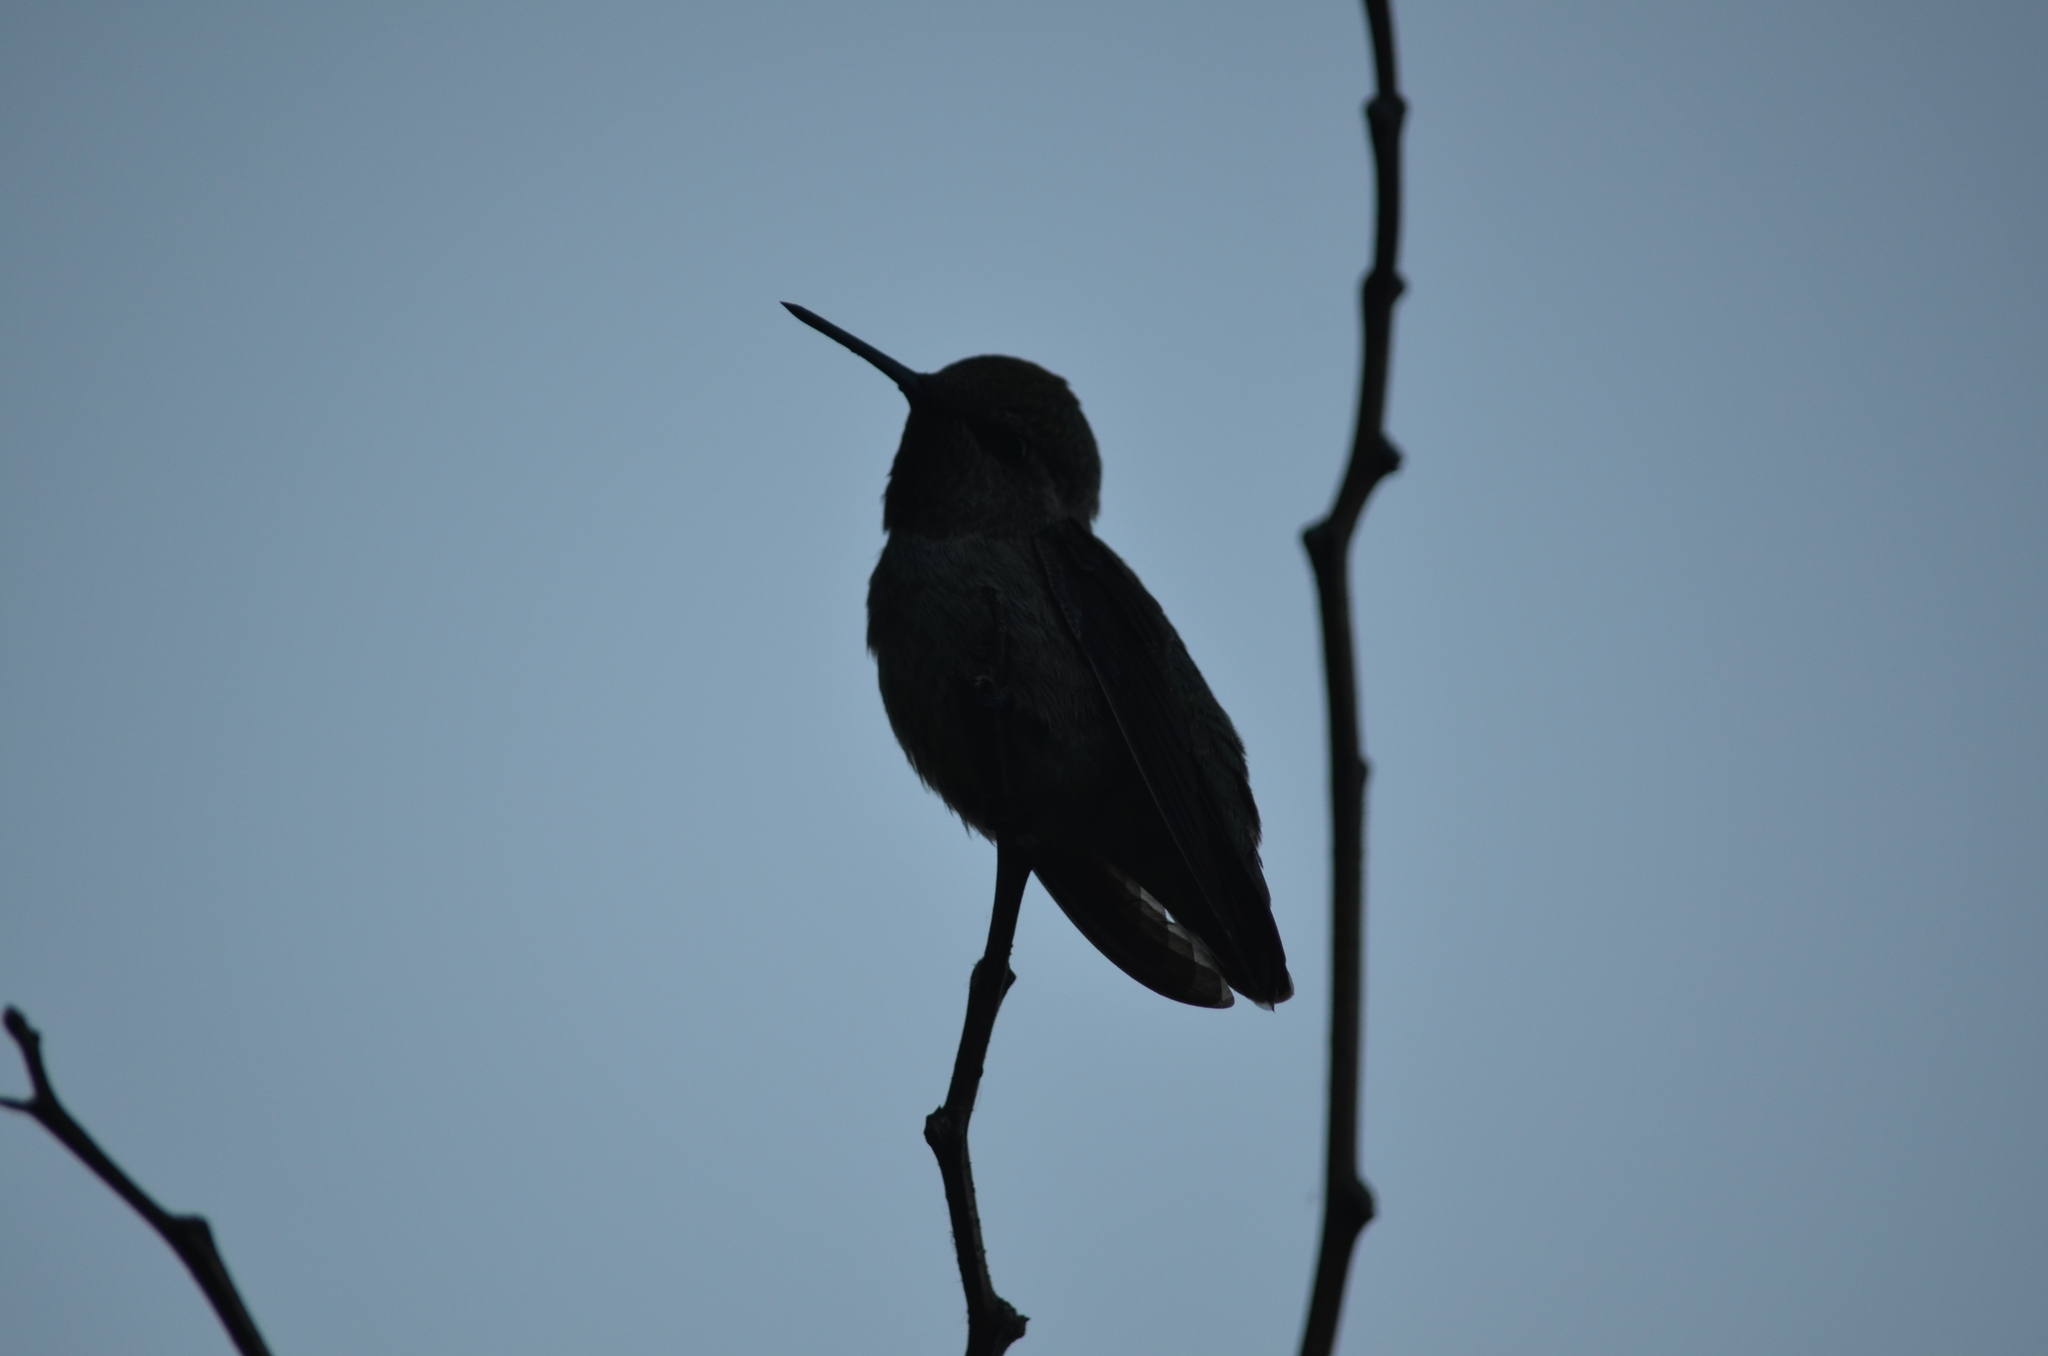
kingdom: Animalia
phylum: Chordata
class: Aves
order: Apodiformes
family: Trochilidae
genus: Calypte
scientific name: Calypte anna
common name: Anna's hummingbird
